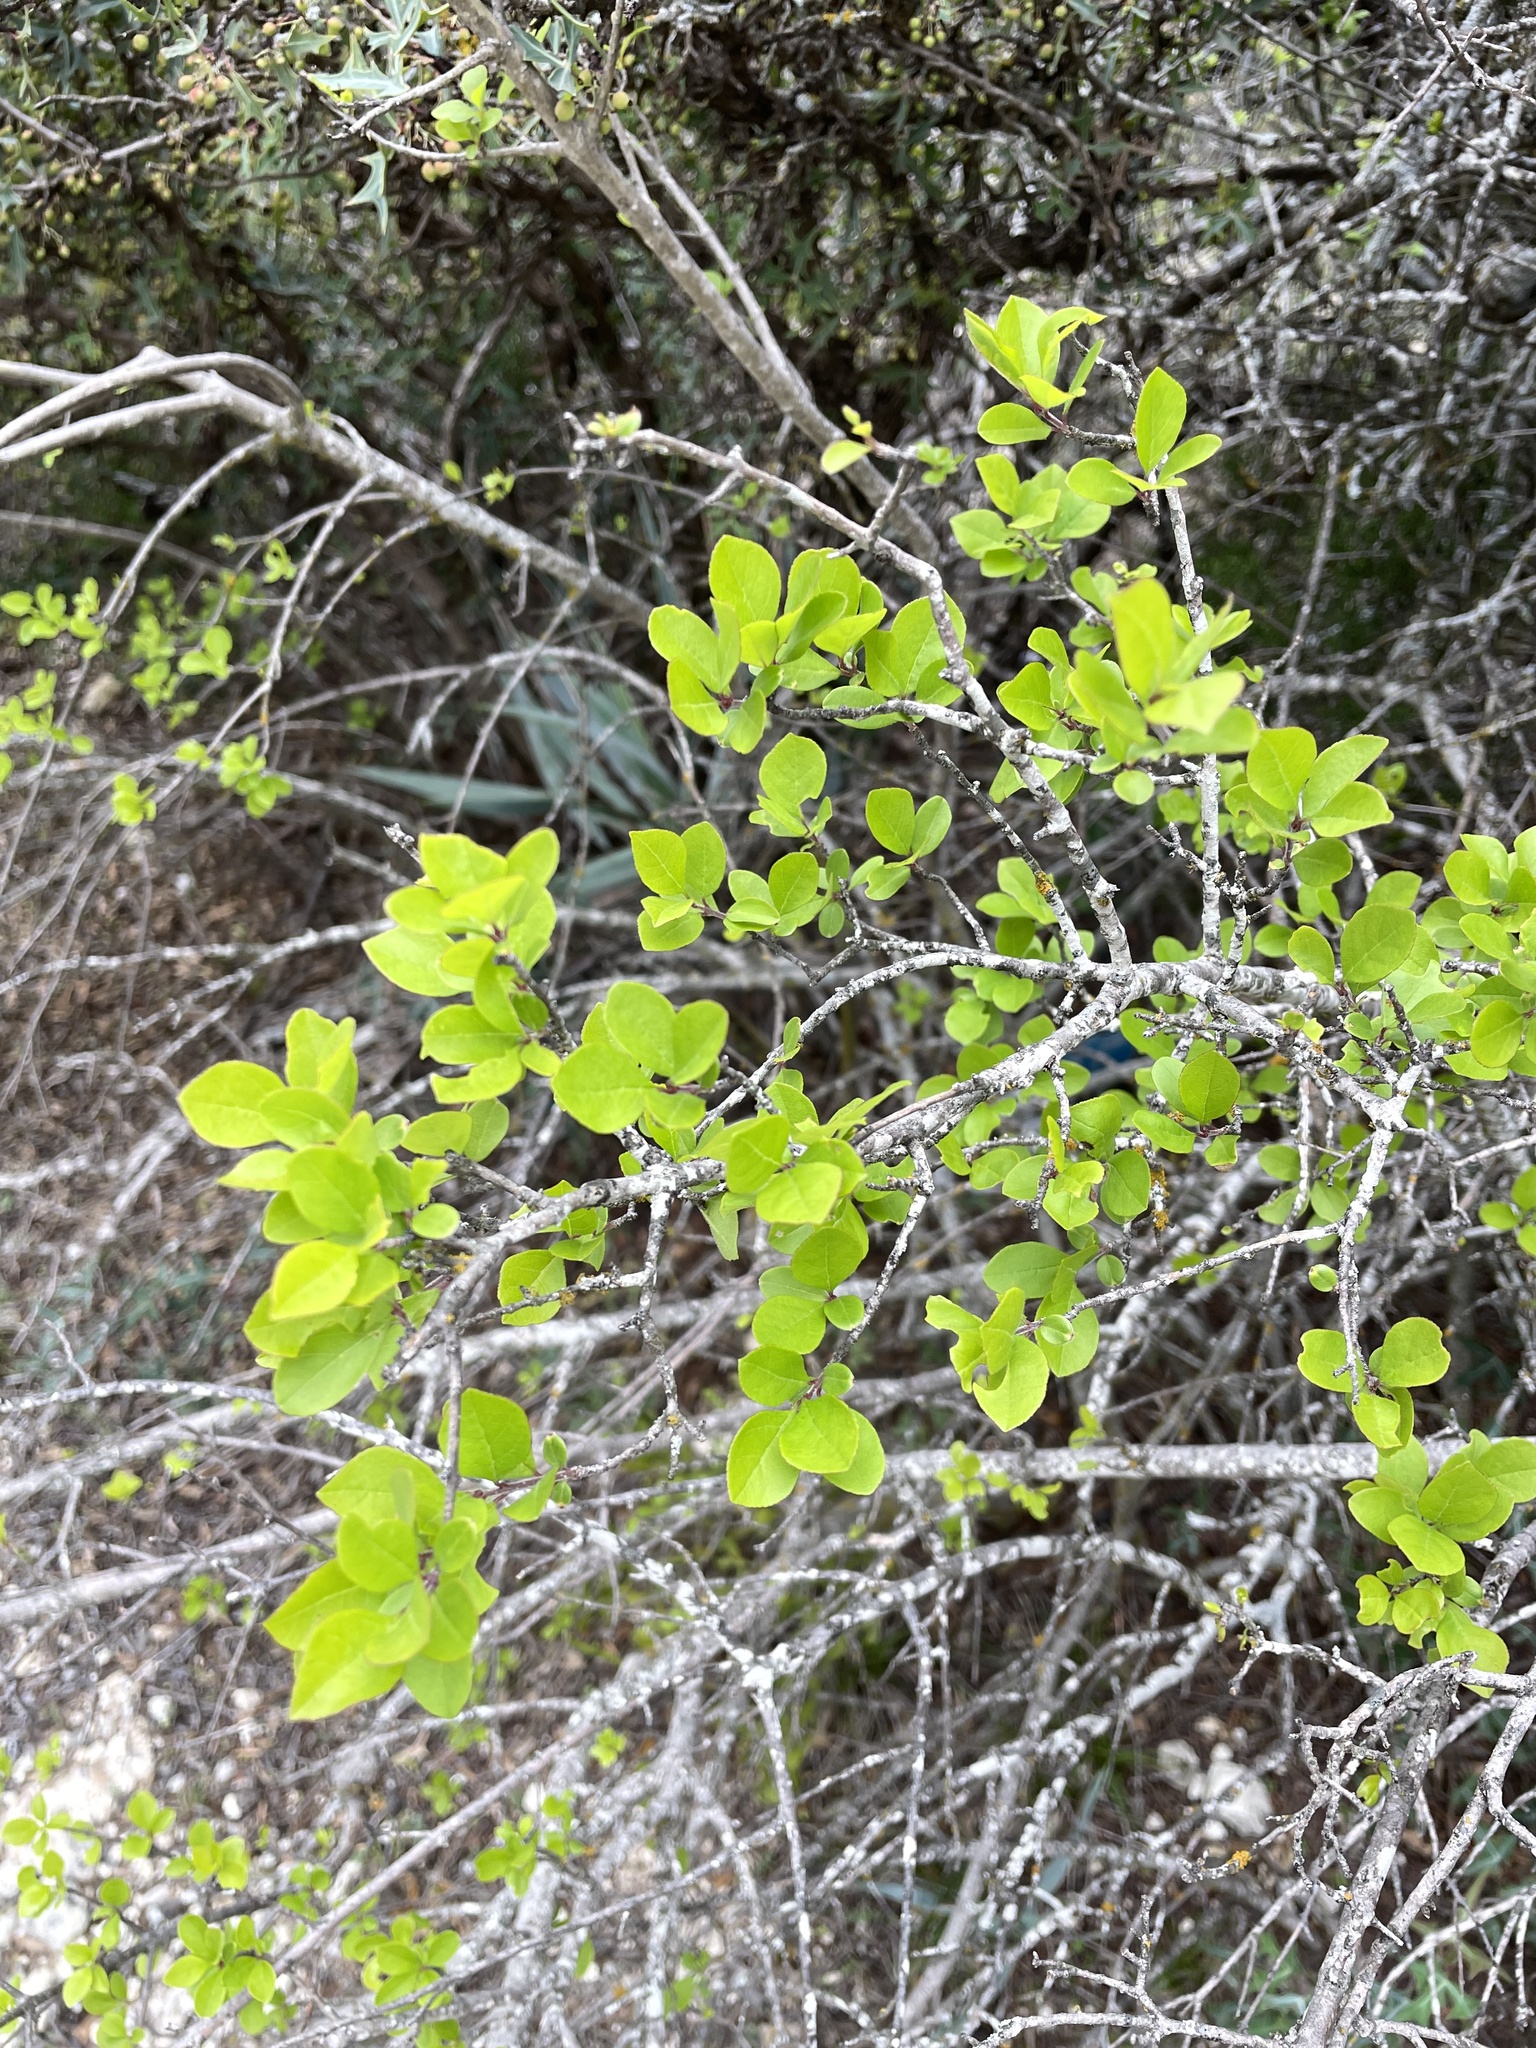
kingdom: Plantae
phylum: Tracheophyta
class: Magnoliopsida
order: Lamiales
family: Oleaceae
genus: Forestiera
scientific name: Forestiera pubescens
